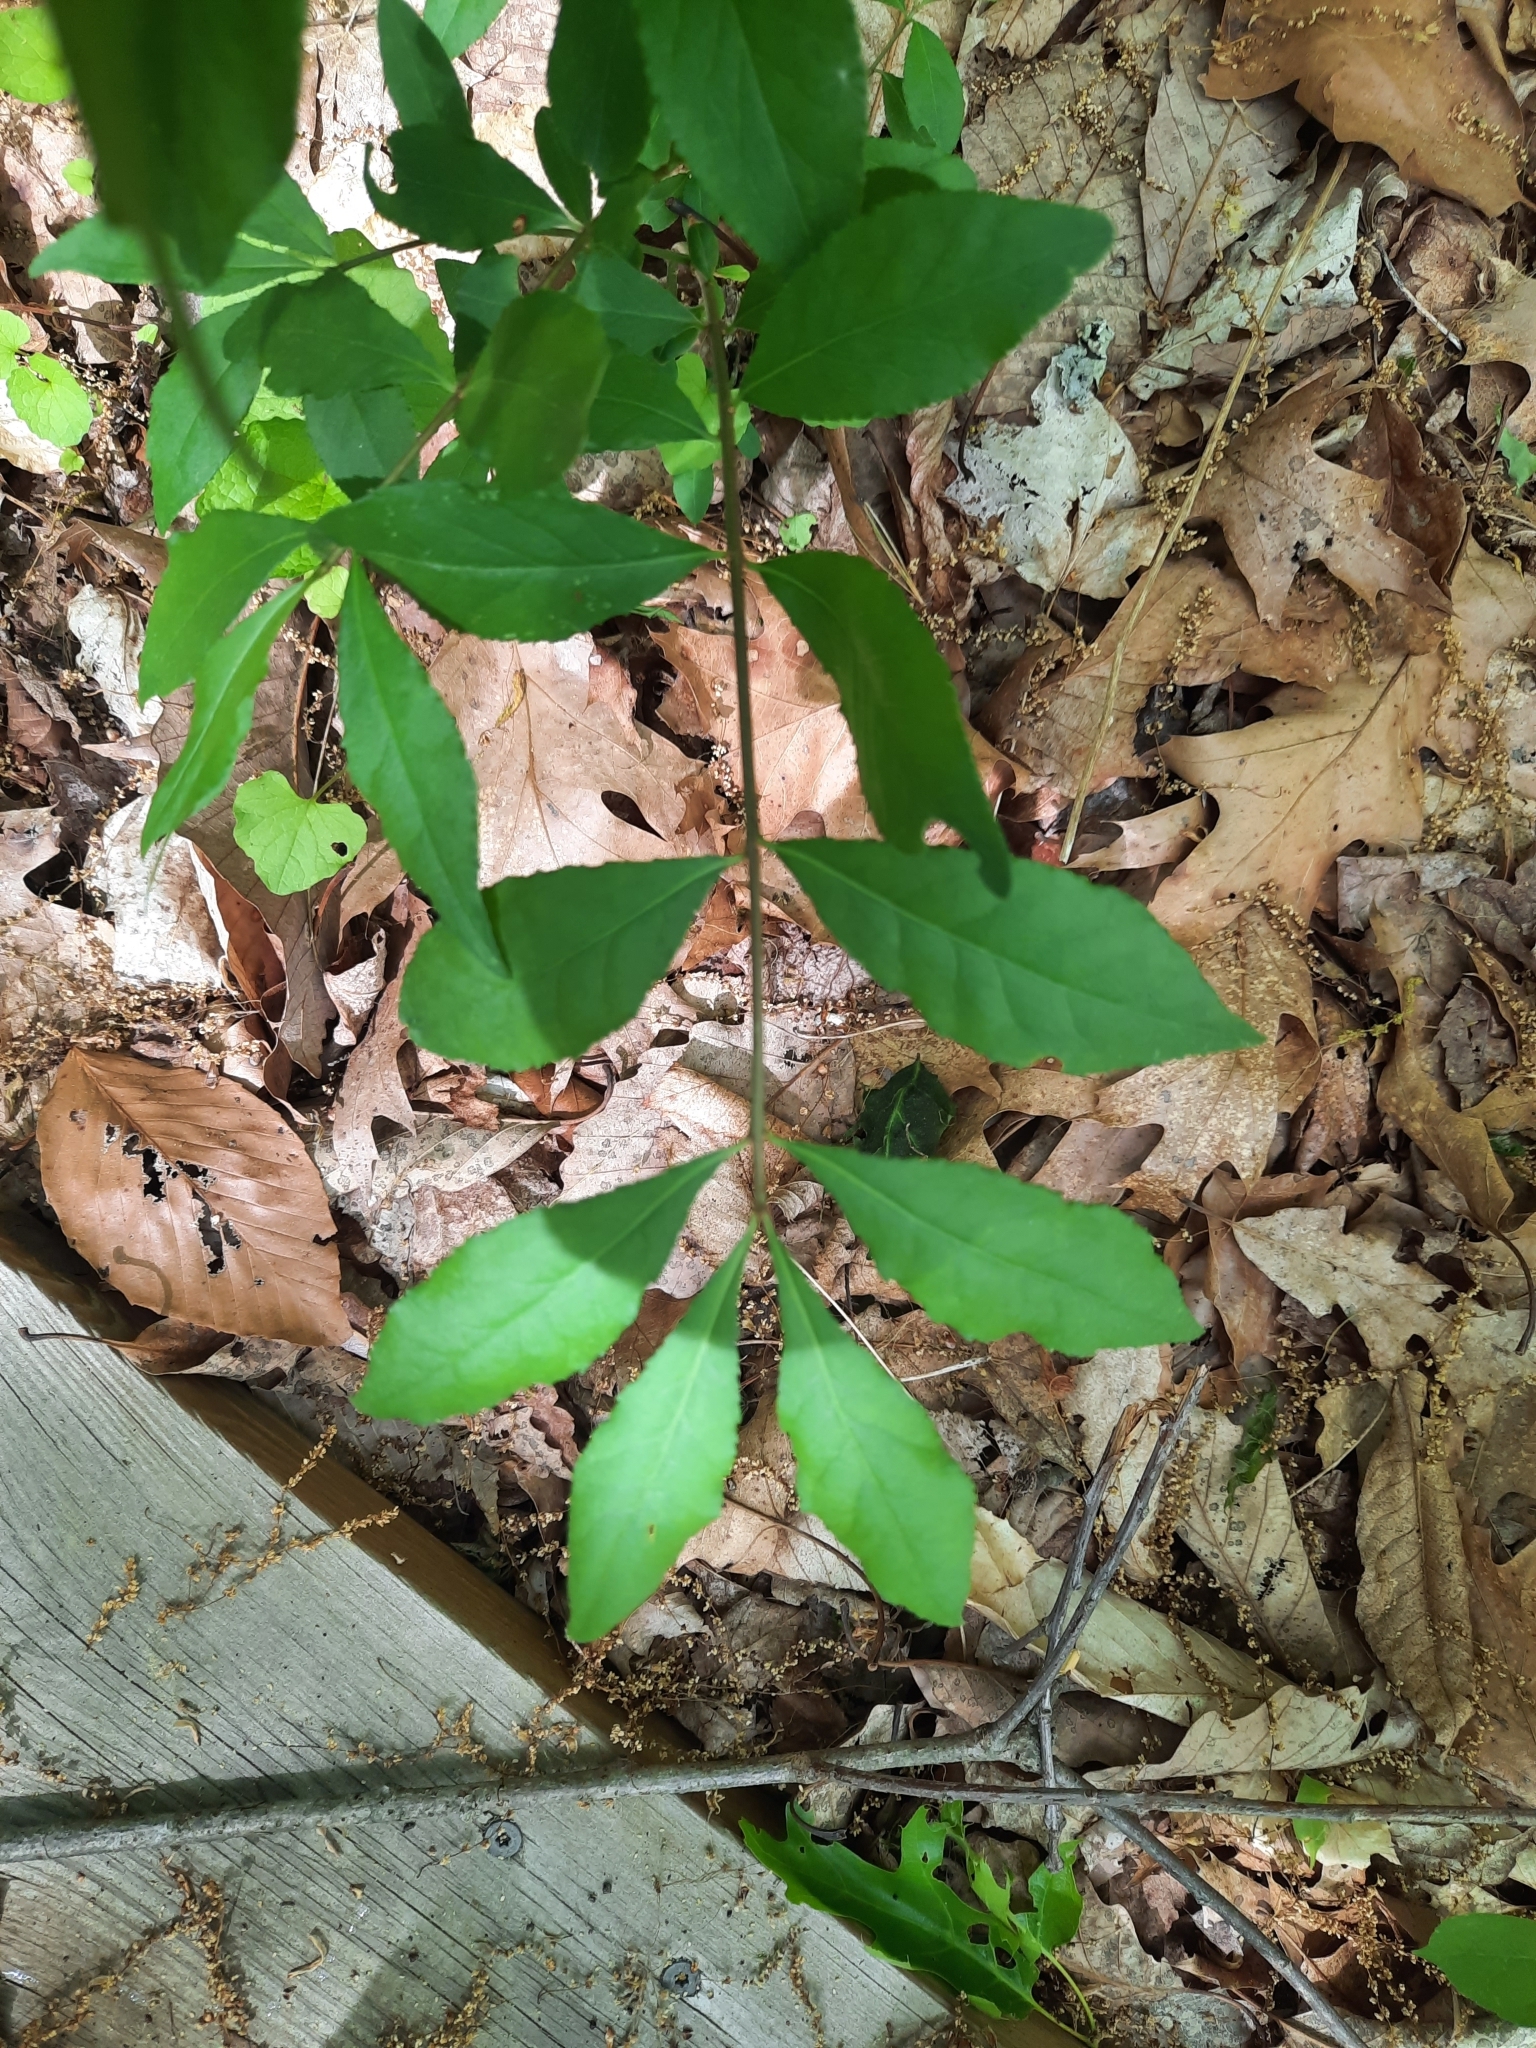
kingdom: Plantae
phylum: Tracheophyta
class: Magnoliopsida
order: Celastrales
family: Celastraceae
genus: Euonymus
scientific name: Euonymus alatus
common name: Winged euonymus
